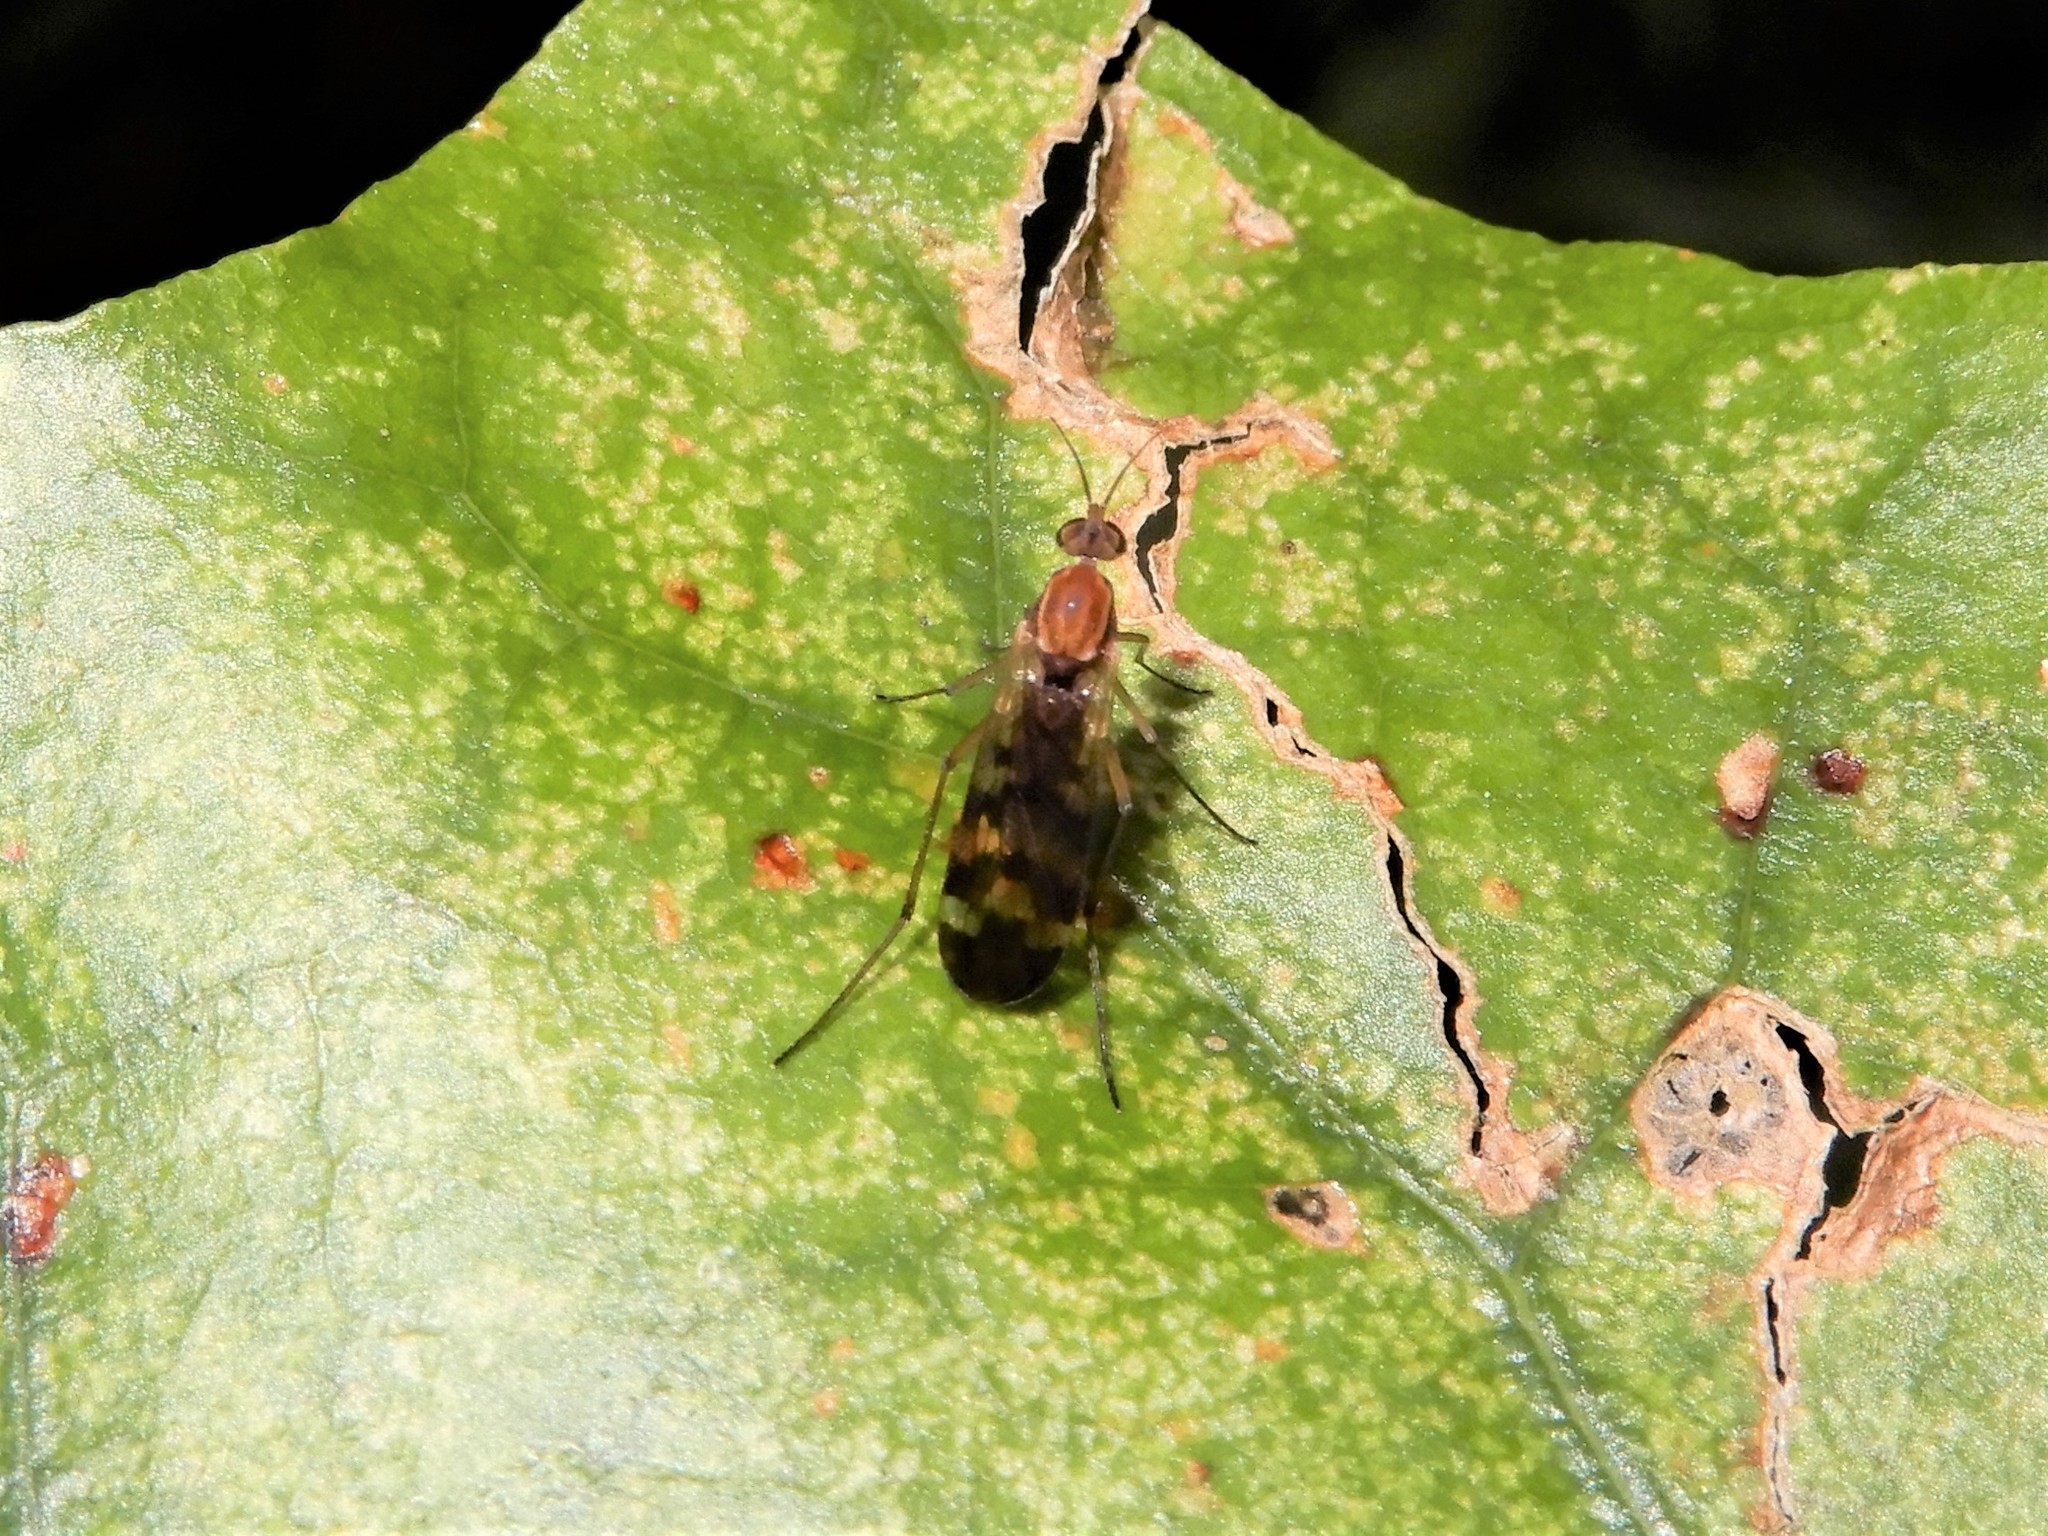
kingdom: Animalia
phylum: Arthropoda
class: Insecta
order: Diptera
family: Anisopodidae
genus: Sylvicola
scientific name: Sylvicola notatus
